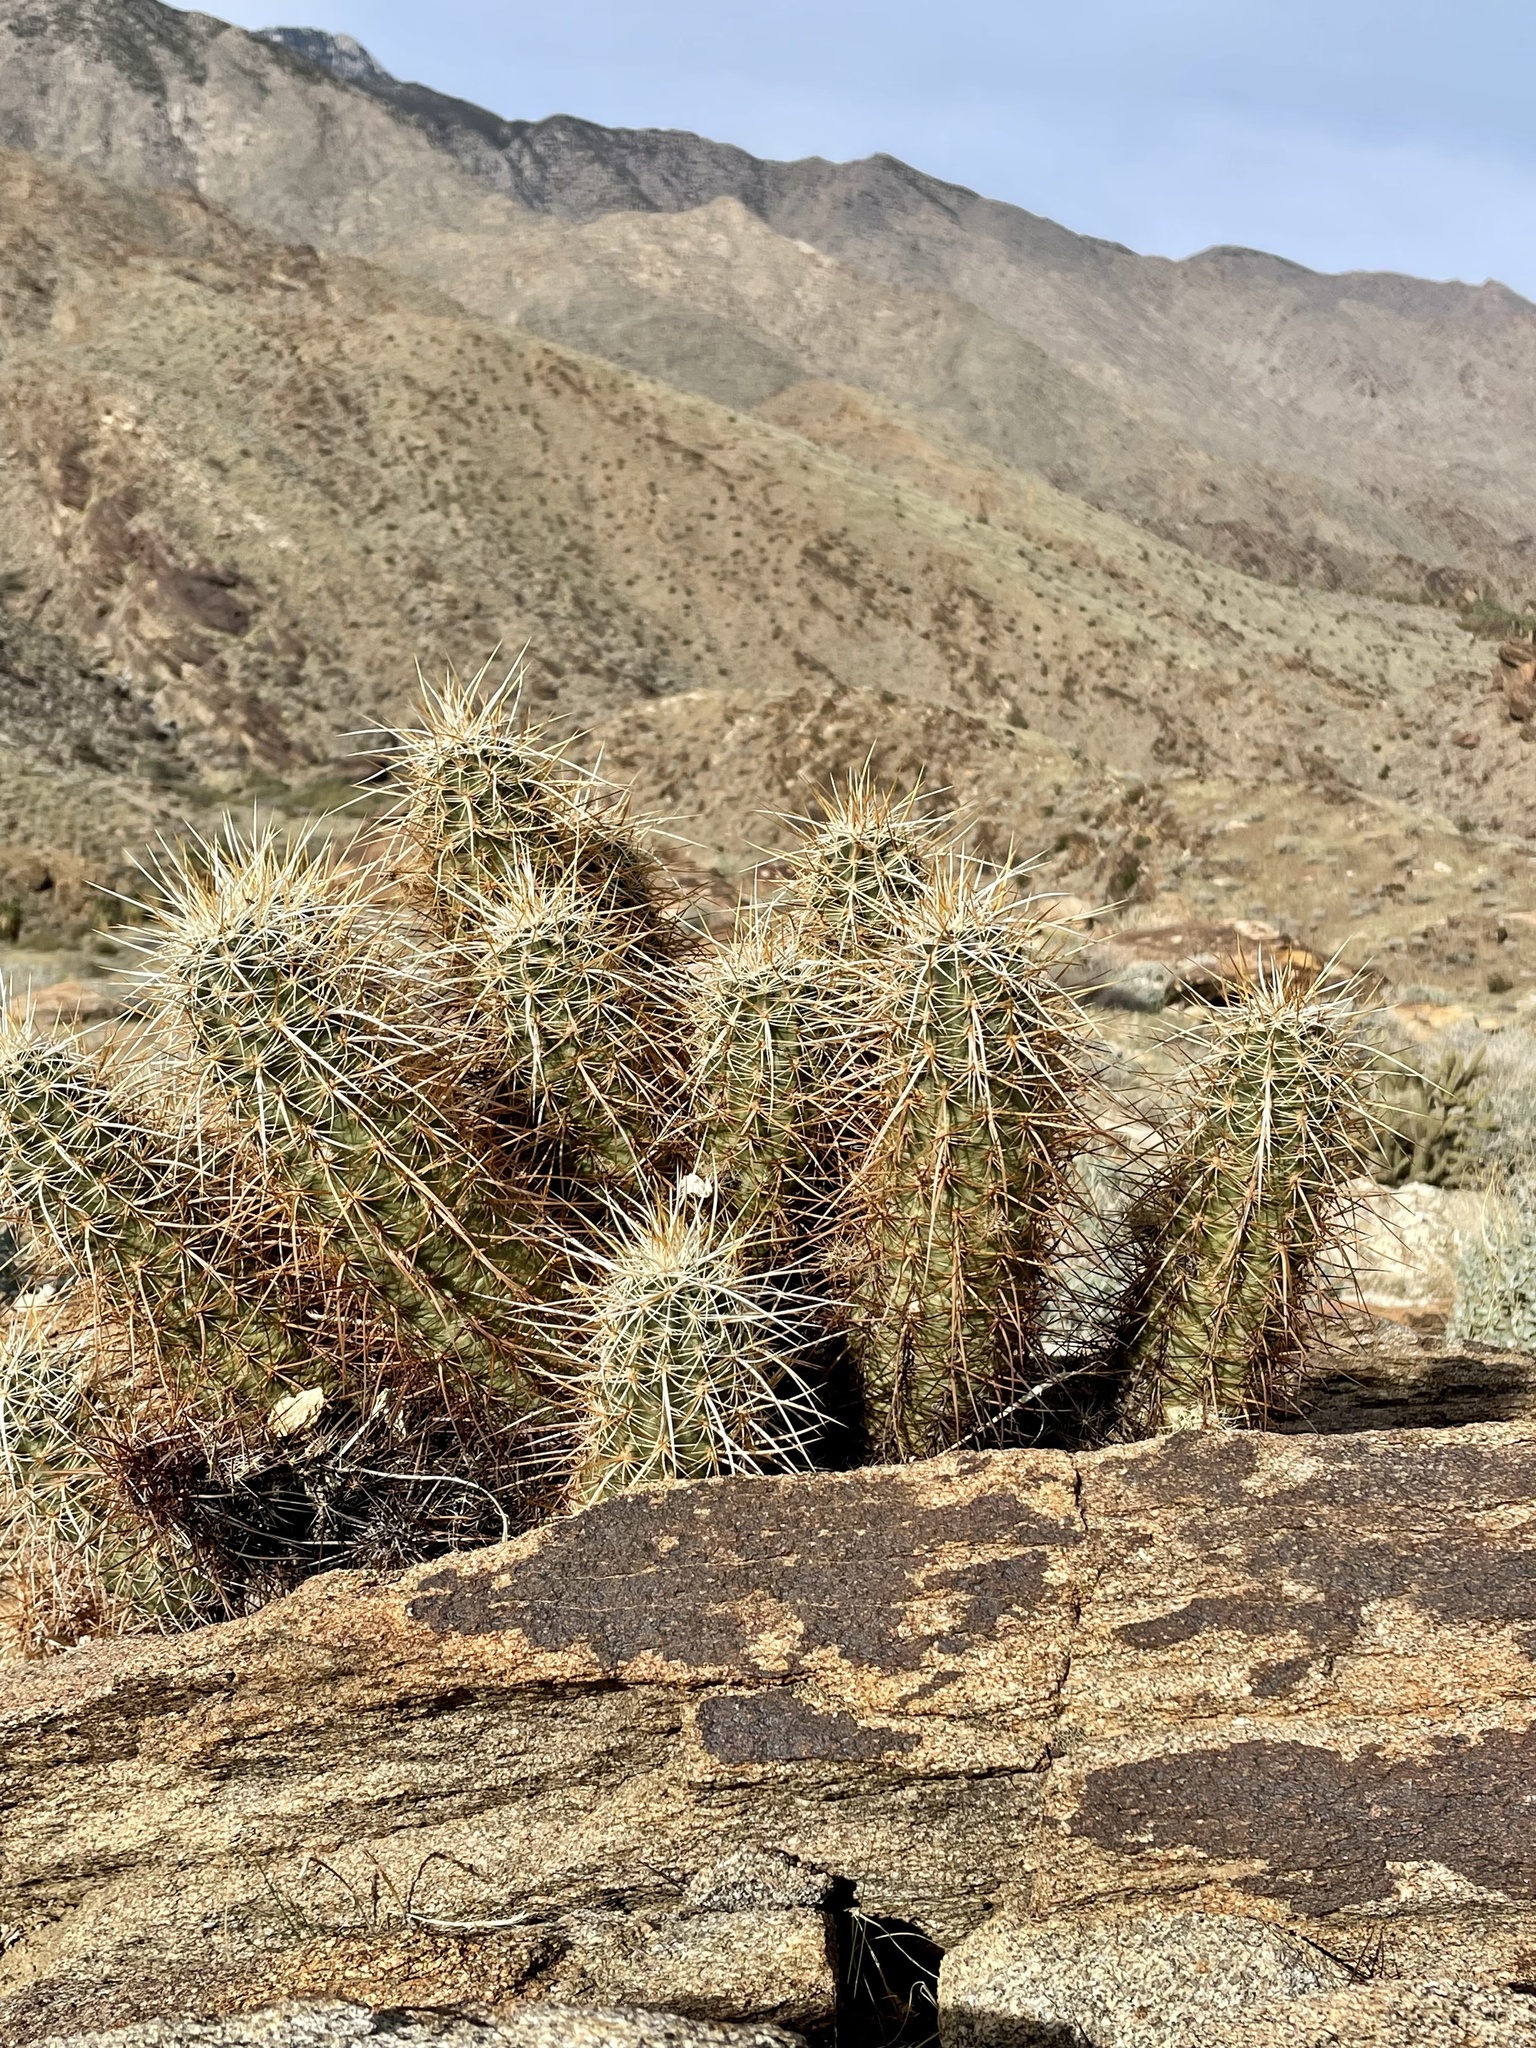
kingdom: Plantae
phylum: Tracheophyta
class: Magnoliopsida
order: Caryophyllales
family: Cactaceae
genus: Echinocereus
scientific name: Echinocereus engelmannii
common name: Engelmann's hedgehog cactus
